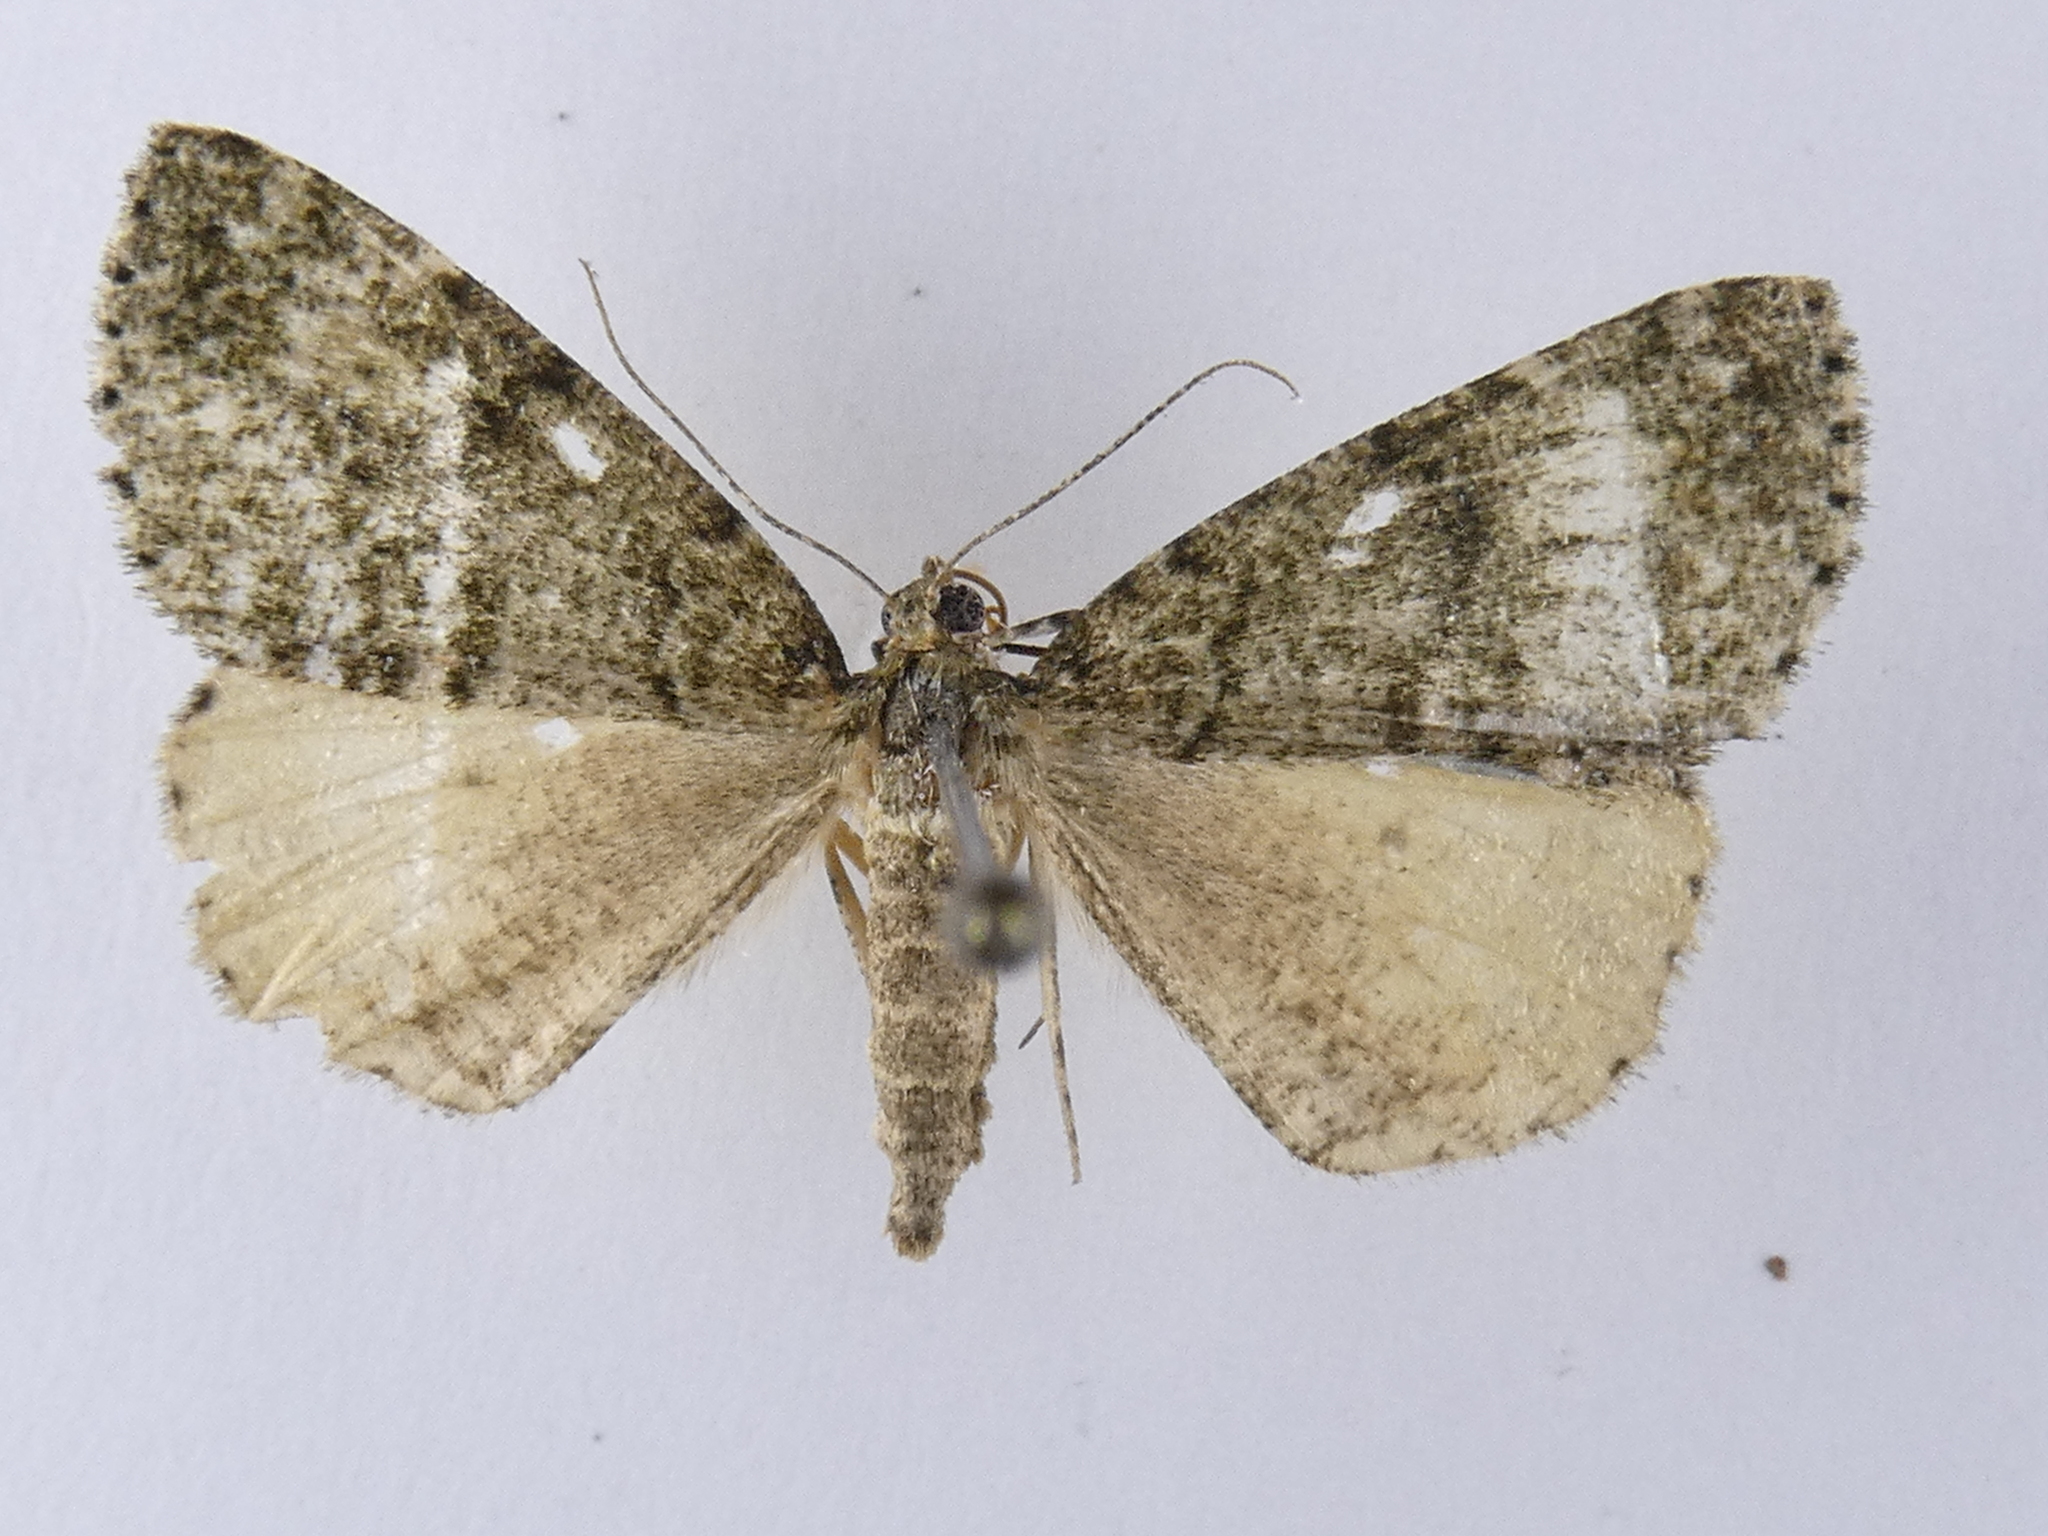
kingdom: Animalia
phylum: Arthropoda
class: Insecta
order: Lepidoptera
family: Geometridae
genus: Pseudocoremia
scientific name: Pseudocoremia indistincta
